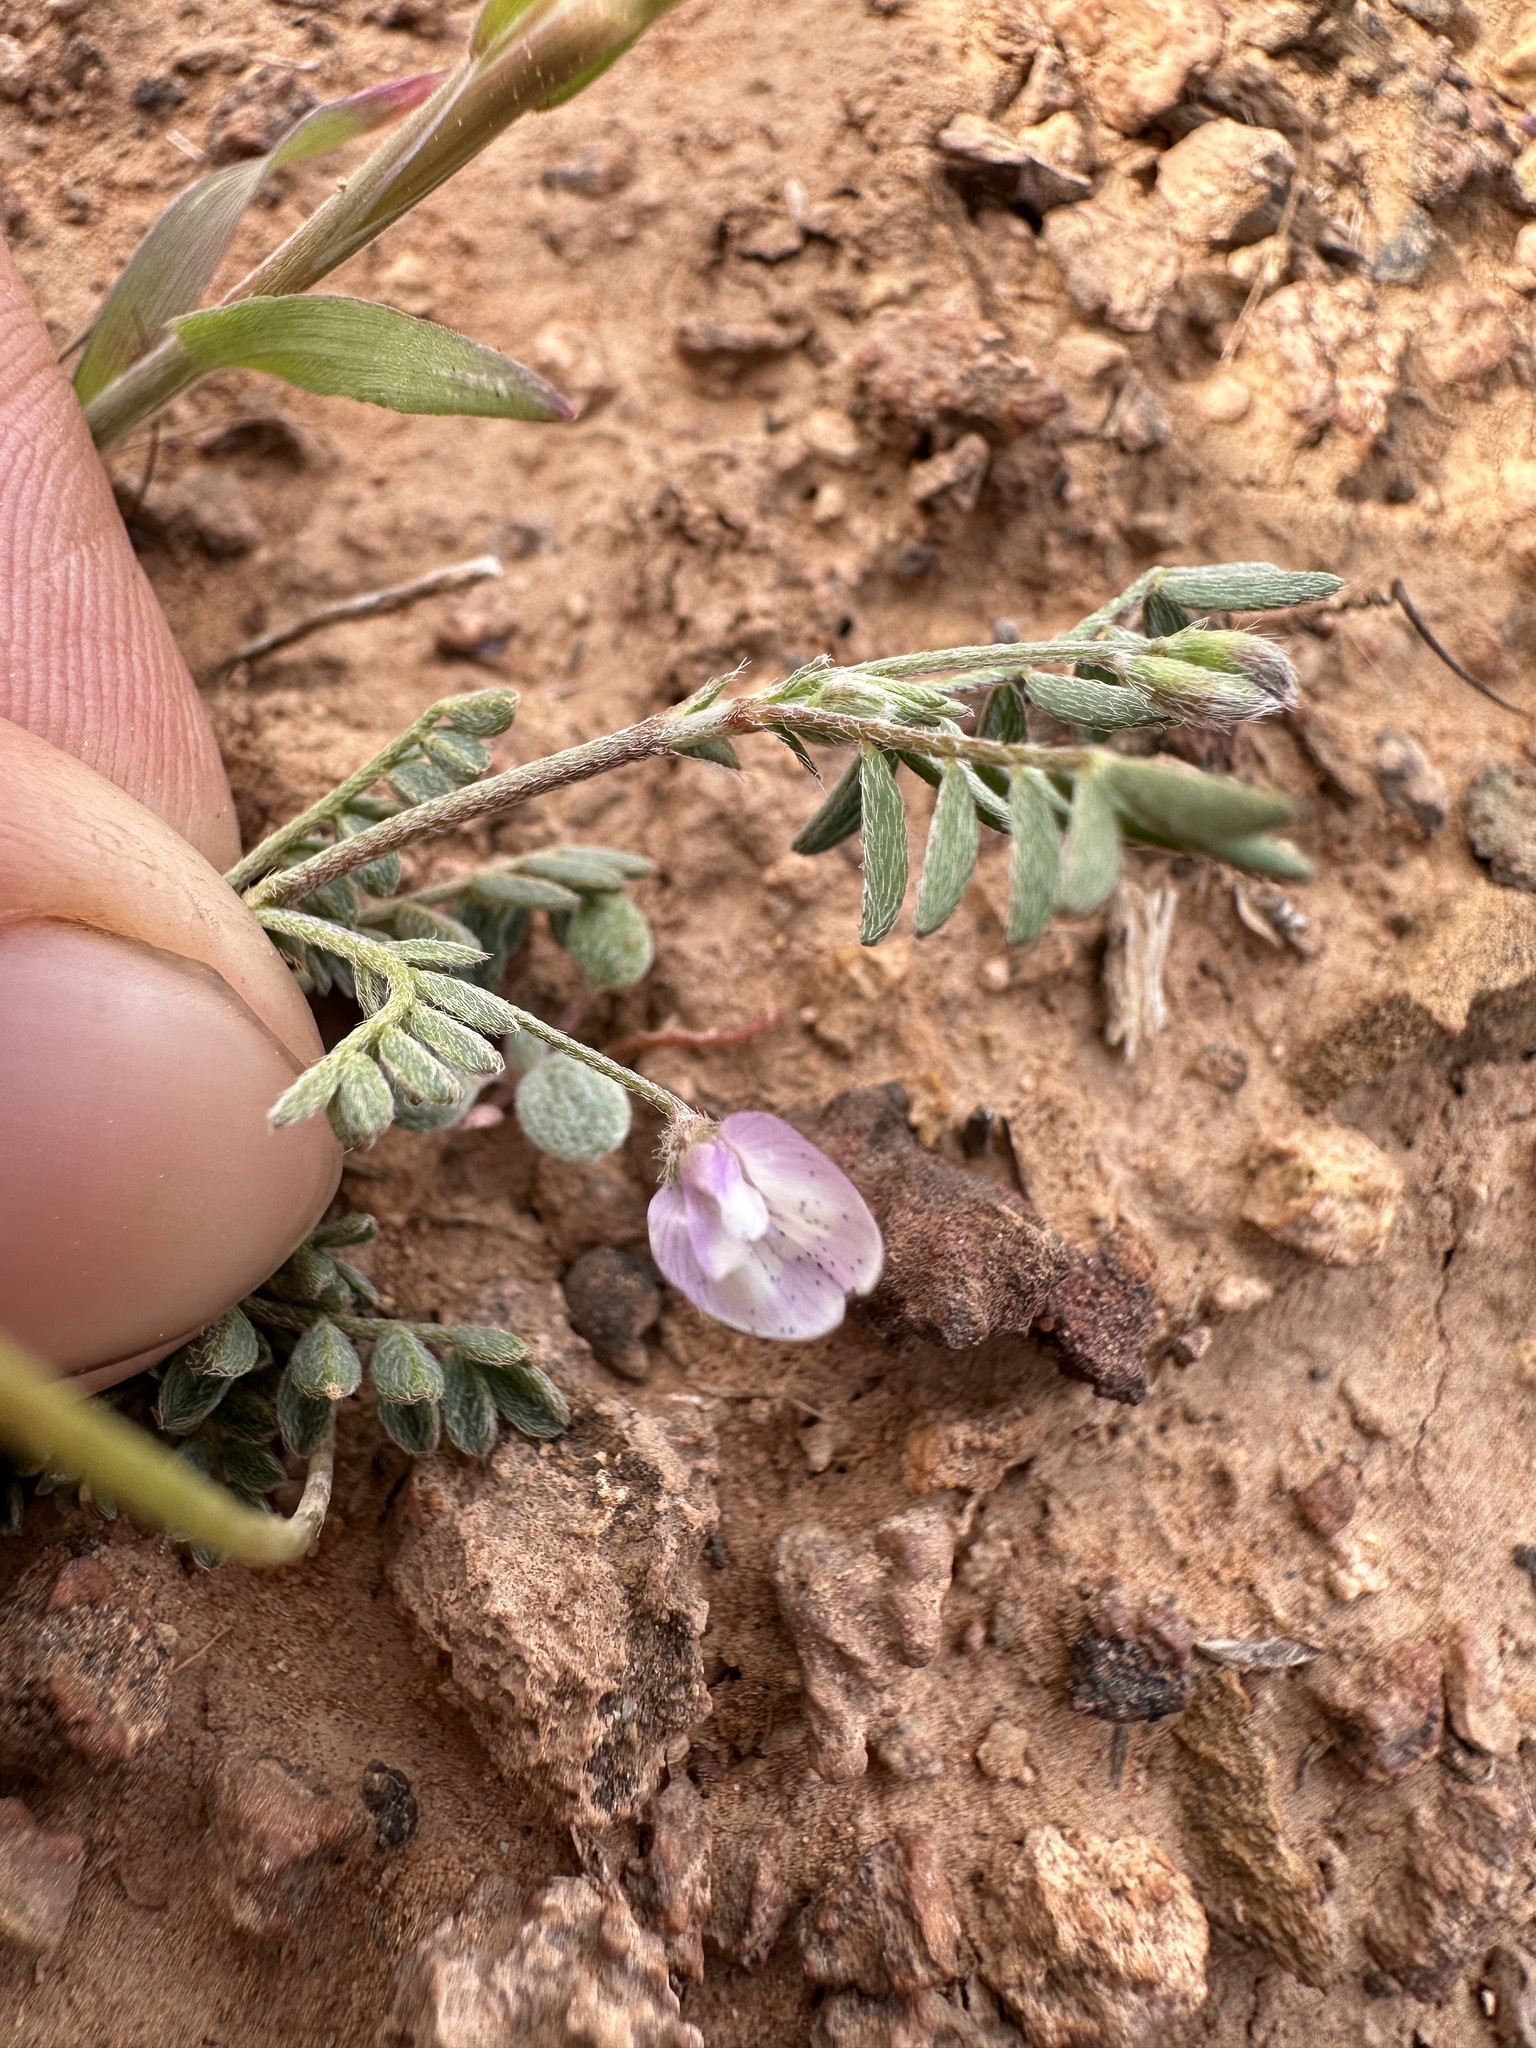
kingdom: Plantae
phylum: Tracheophyta
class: Magnoliopsida
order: Fabales
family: Fabaceae
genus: Astragalus
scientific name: Astragalus nuttallianus
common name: Smallflowered milkvetch
